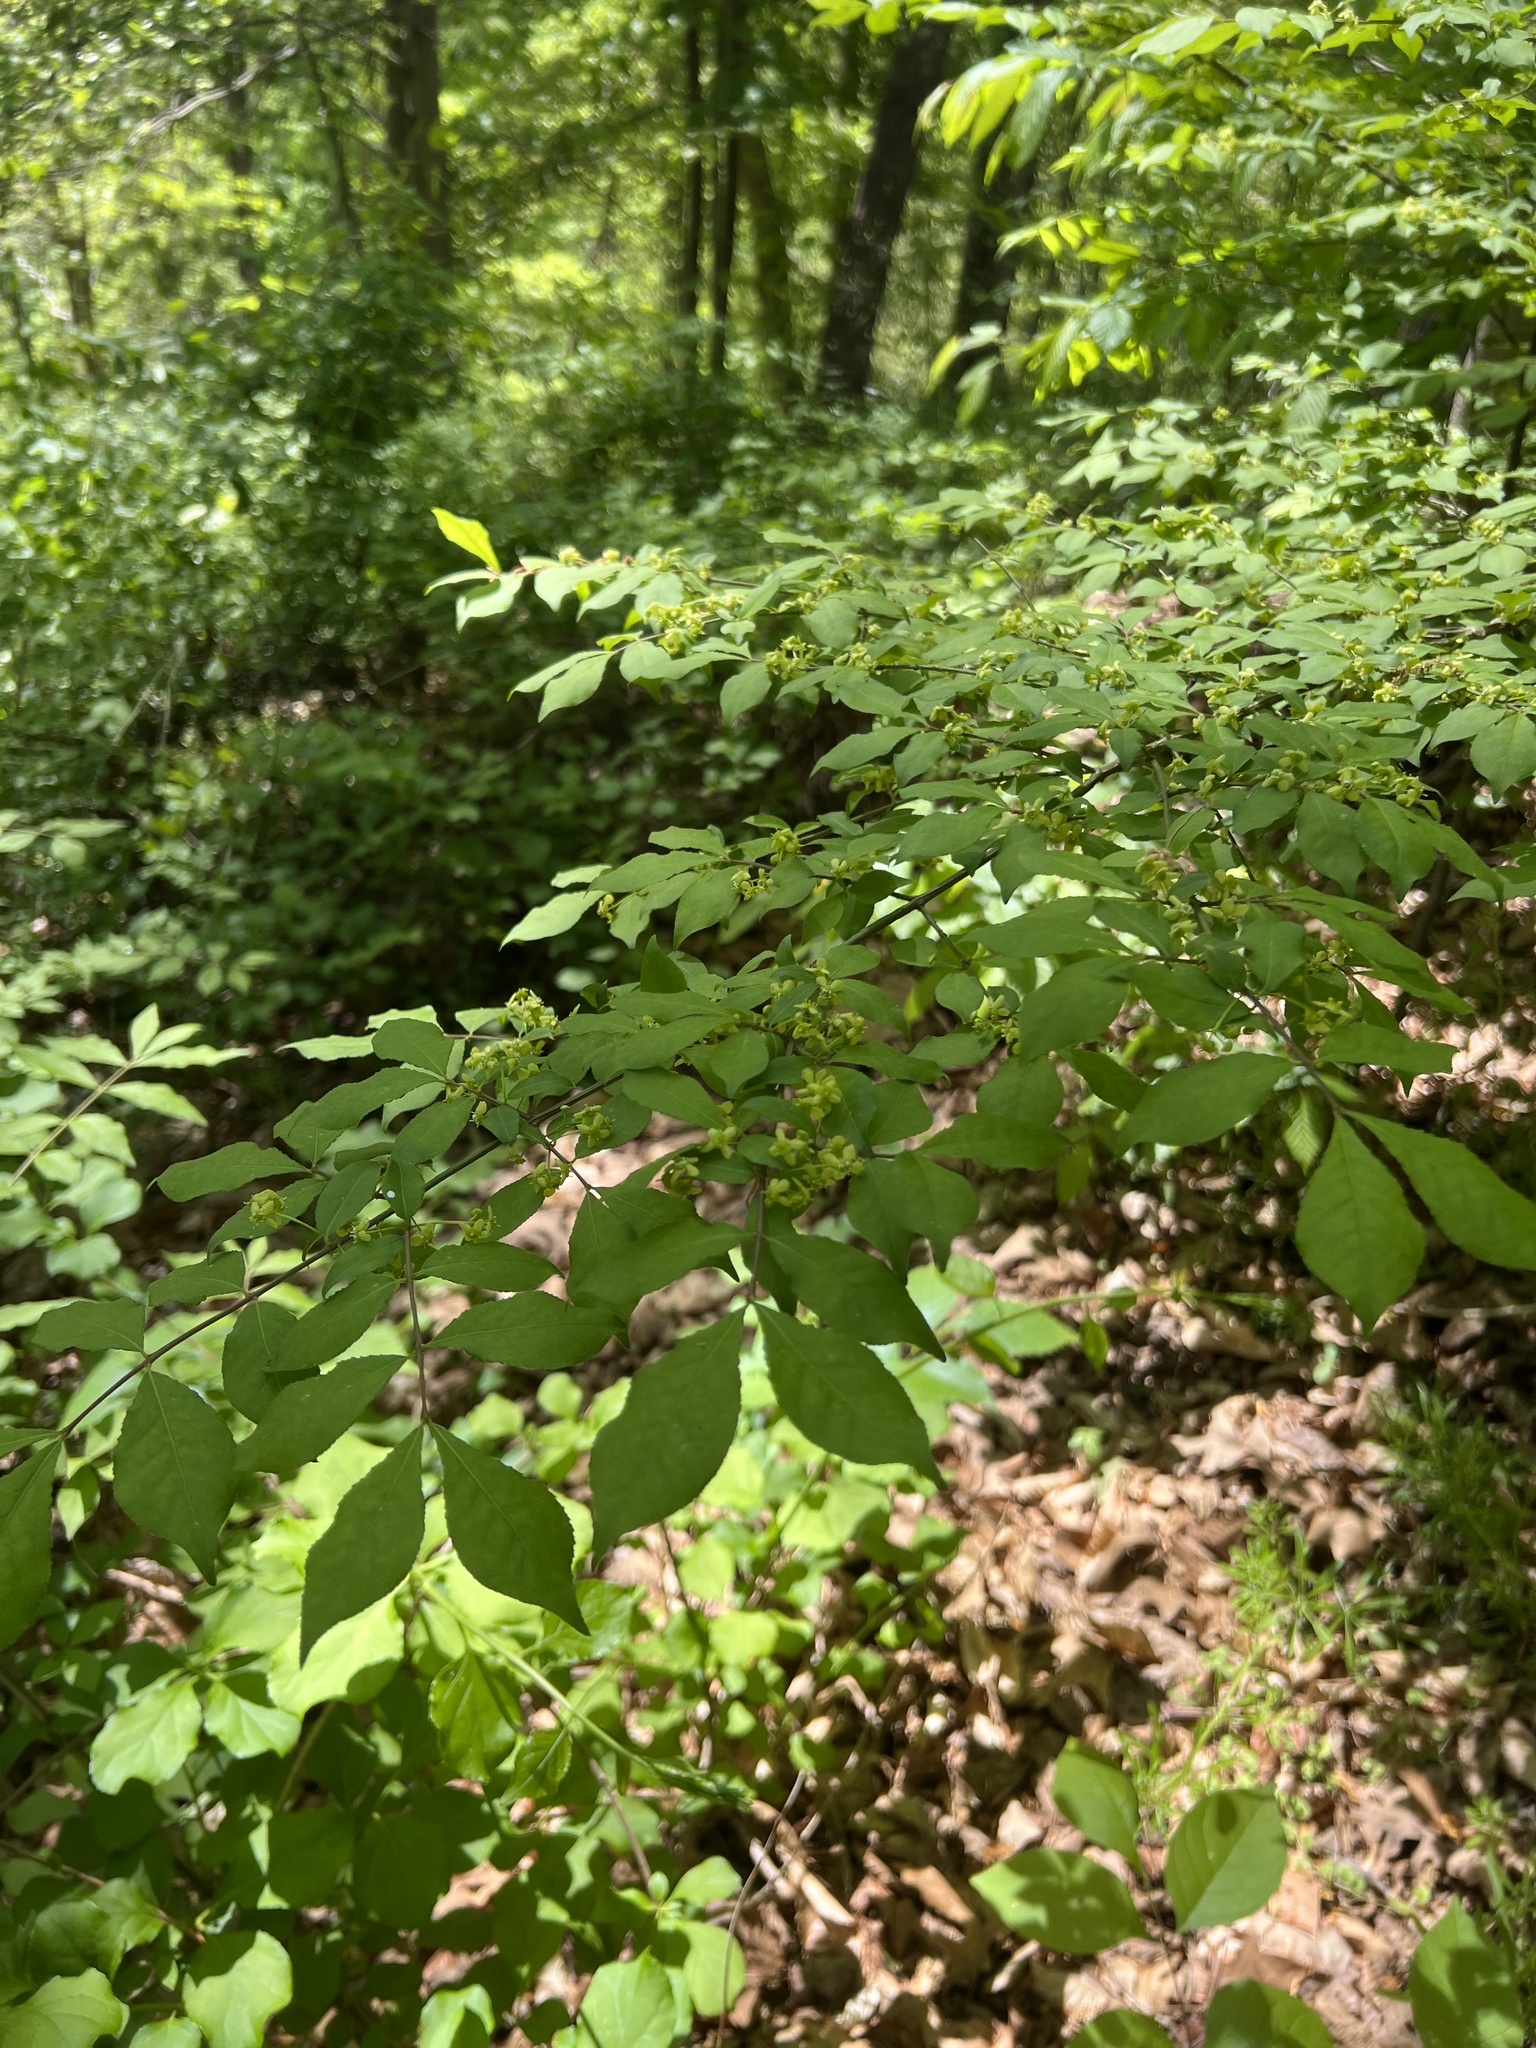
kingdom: Plantae
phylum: Tracheophyta
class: Magnoliopsida
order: Celastrales
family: Celastraceae
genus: Euonymus
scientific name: Euonymus alatus
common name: Winged euonymus
